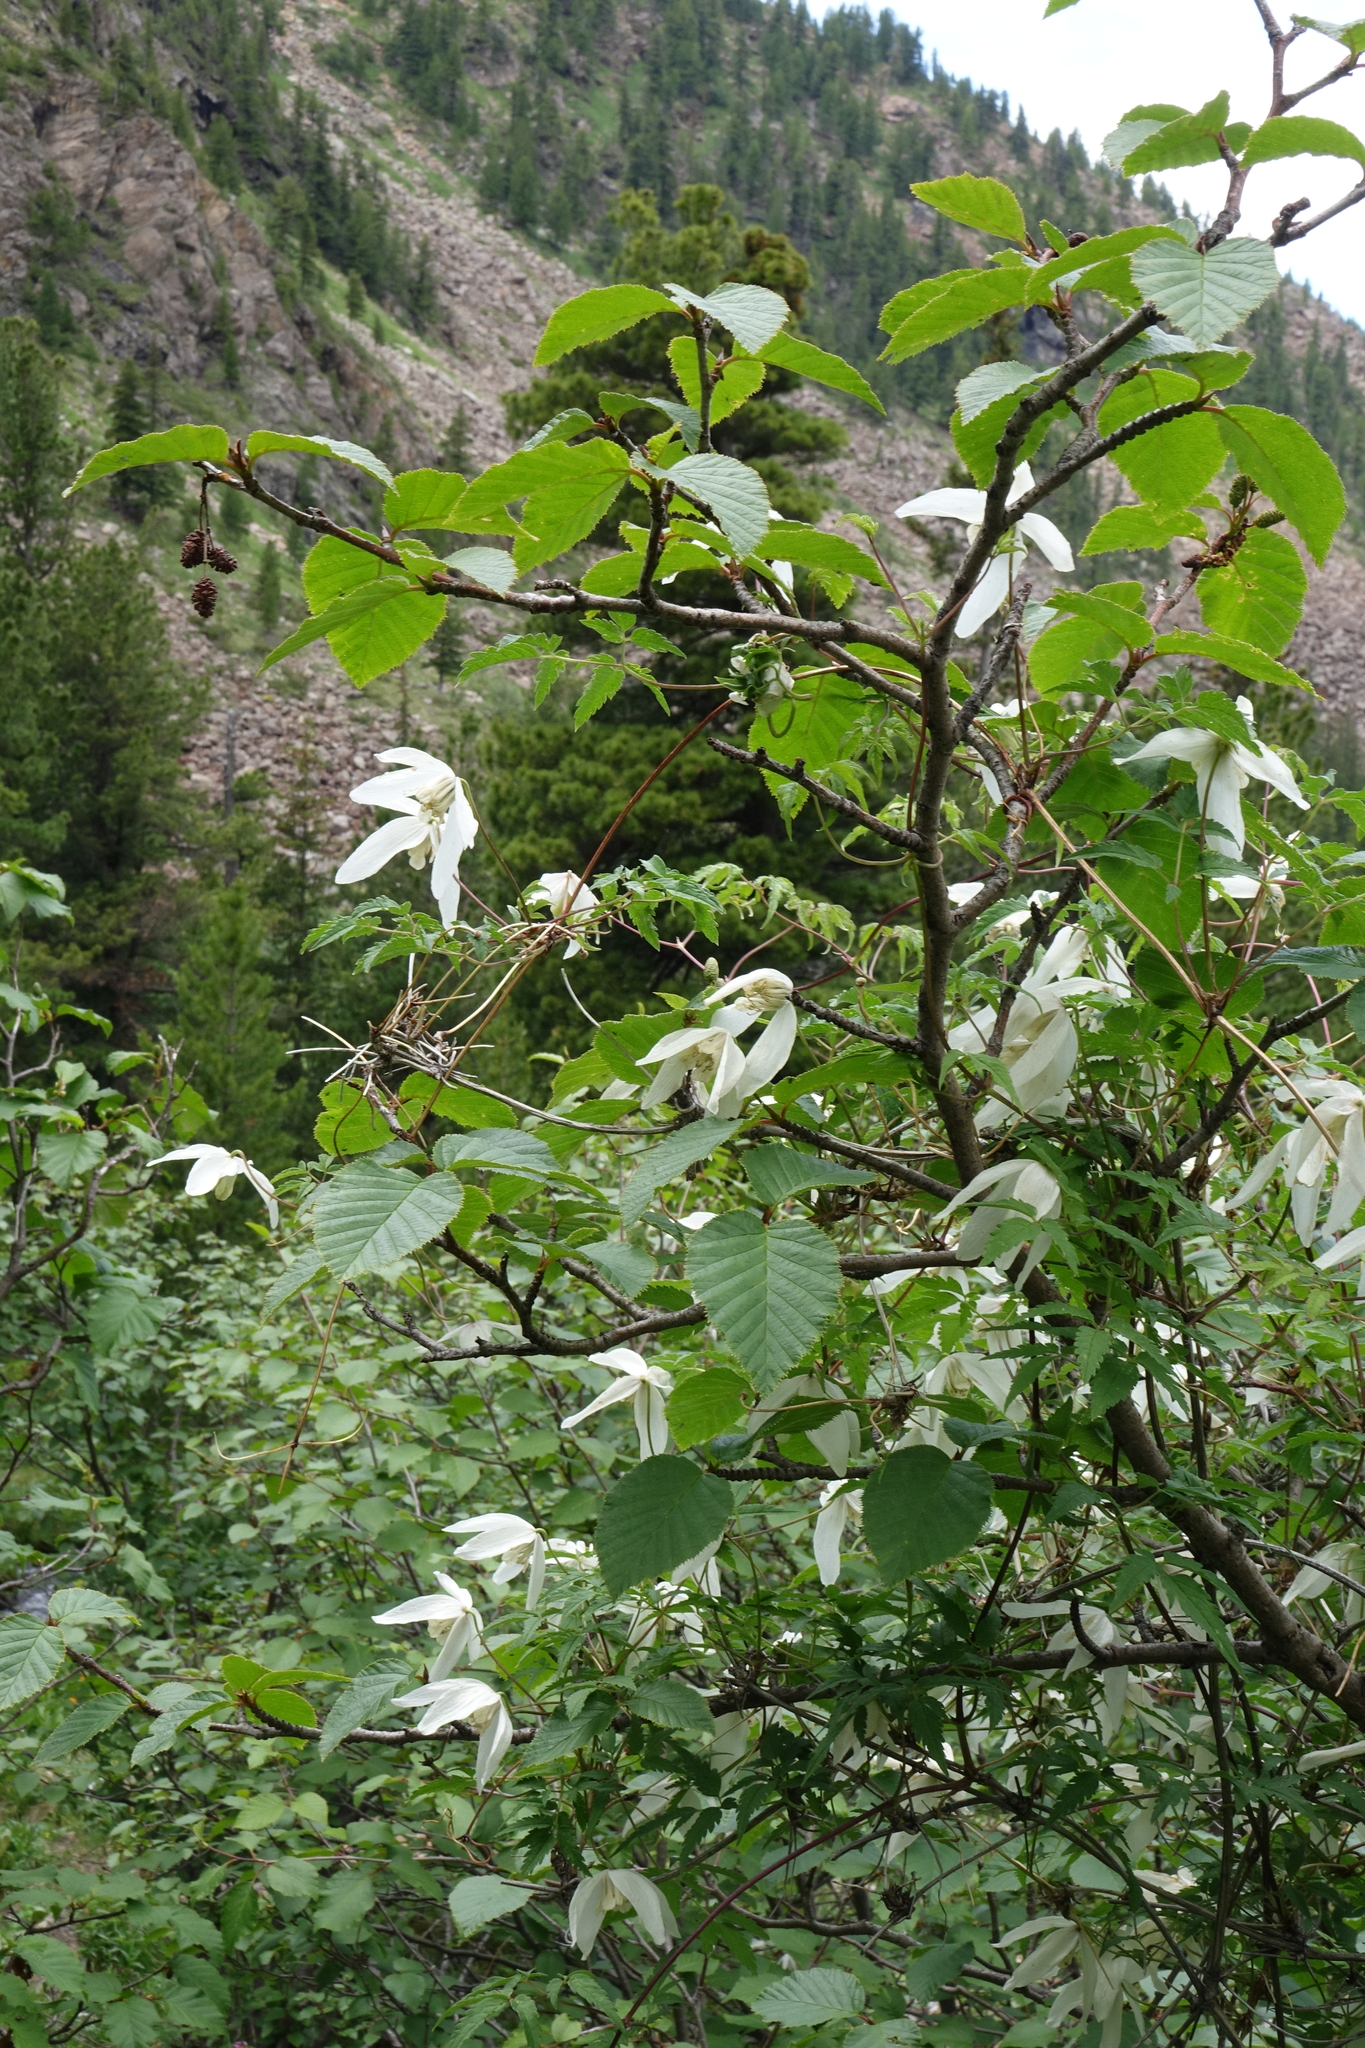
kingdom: Plantae
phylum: Tracheophyta
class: Magnoliopsida
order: Fagales
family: Betulaceae
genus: Alnus
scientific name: Alnus alnobetula
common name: Green alder
